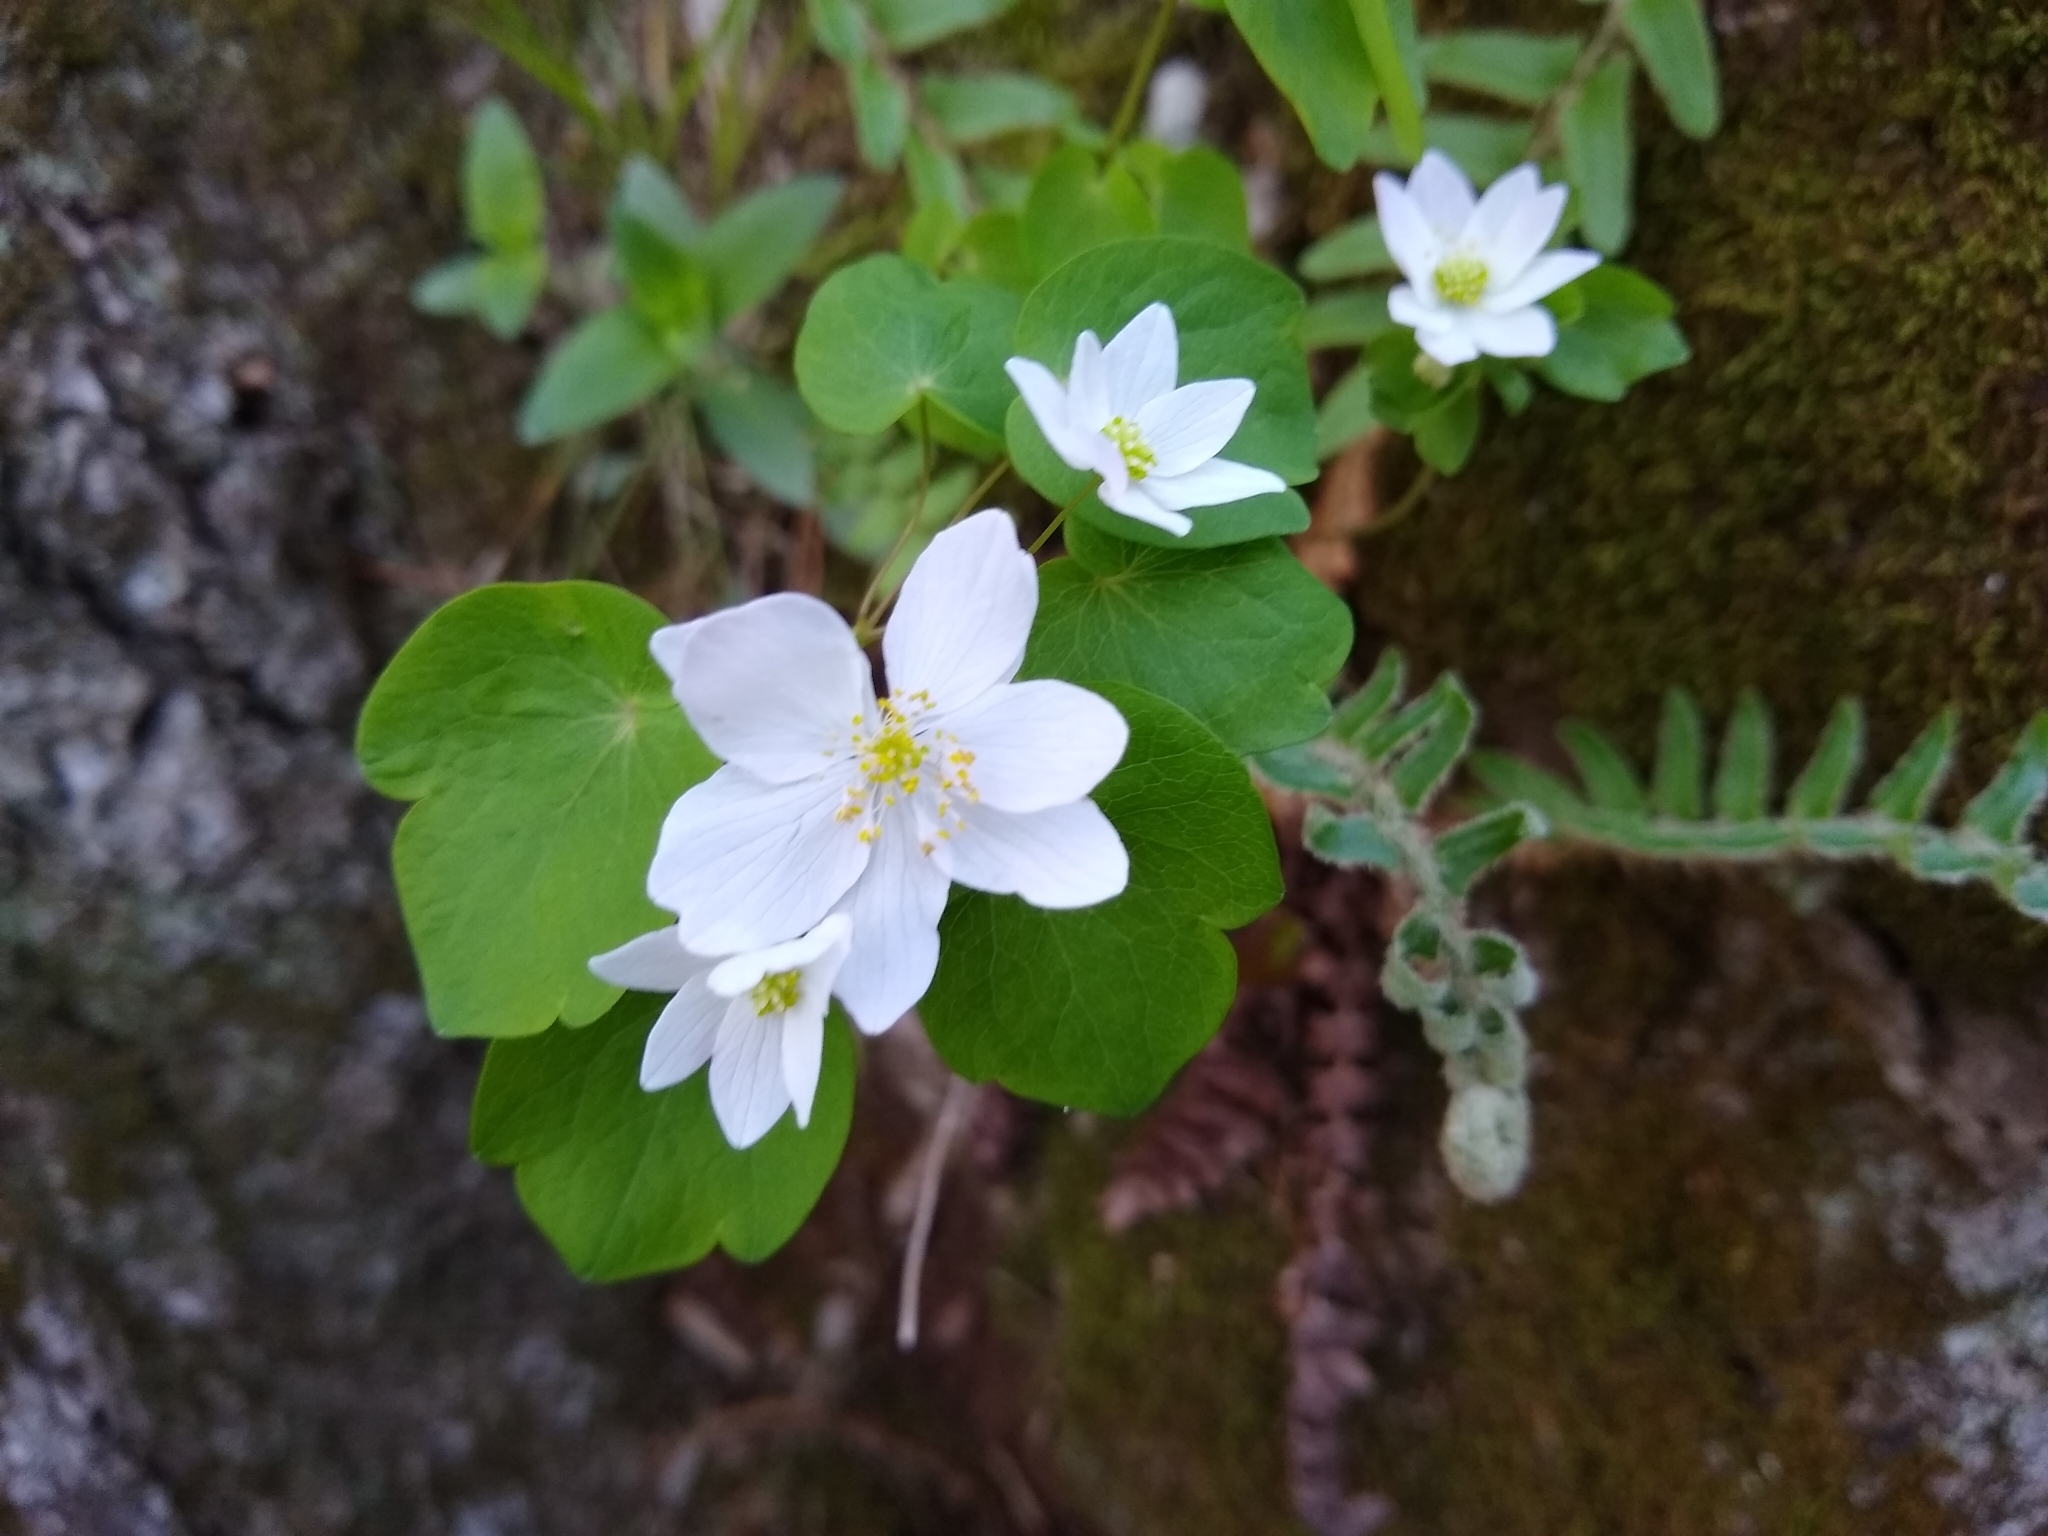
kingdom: Plantae
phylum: Tracheophyta
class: Magnoliopsida
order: Ranunculales
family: Ranunculaceae
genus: Thalictrum
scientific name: Thalictrum thalictroides
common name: Rue-anemone
